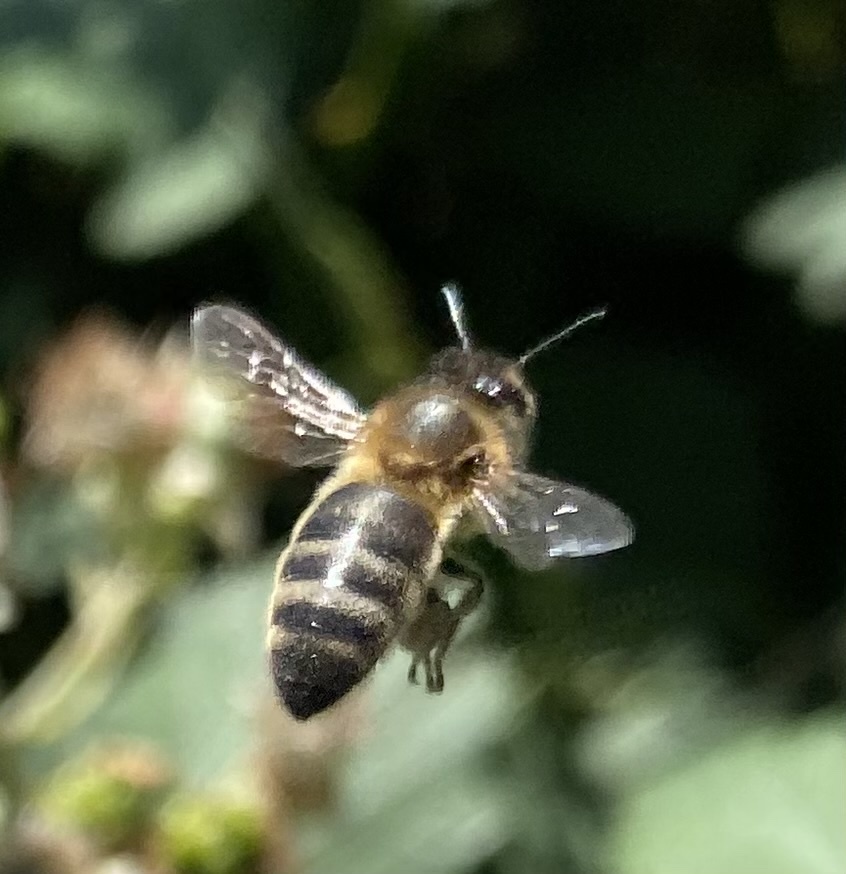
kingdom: Animalia
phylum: Arthropoda
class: Insecta
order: Hymenoptera
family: Apidae
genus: Apis
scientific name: Apis mellifera
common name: Honey bee
